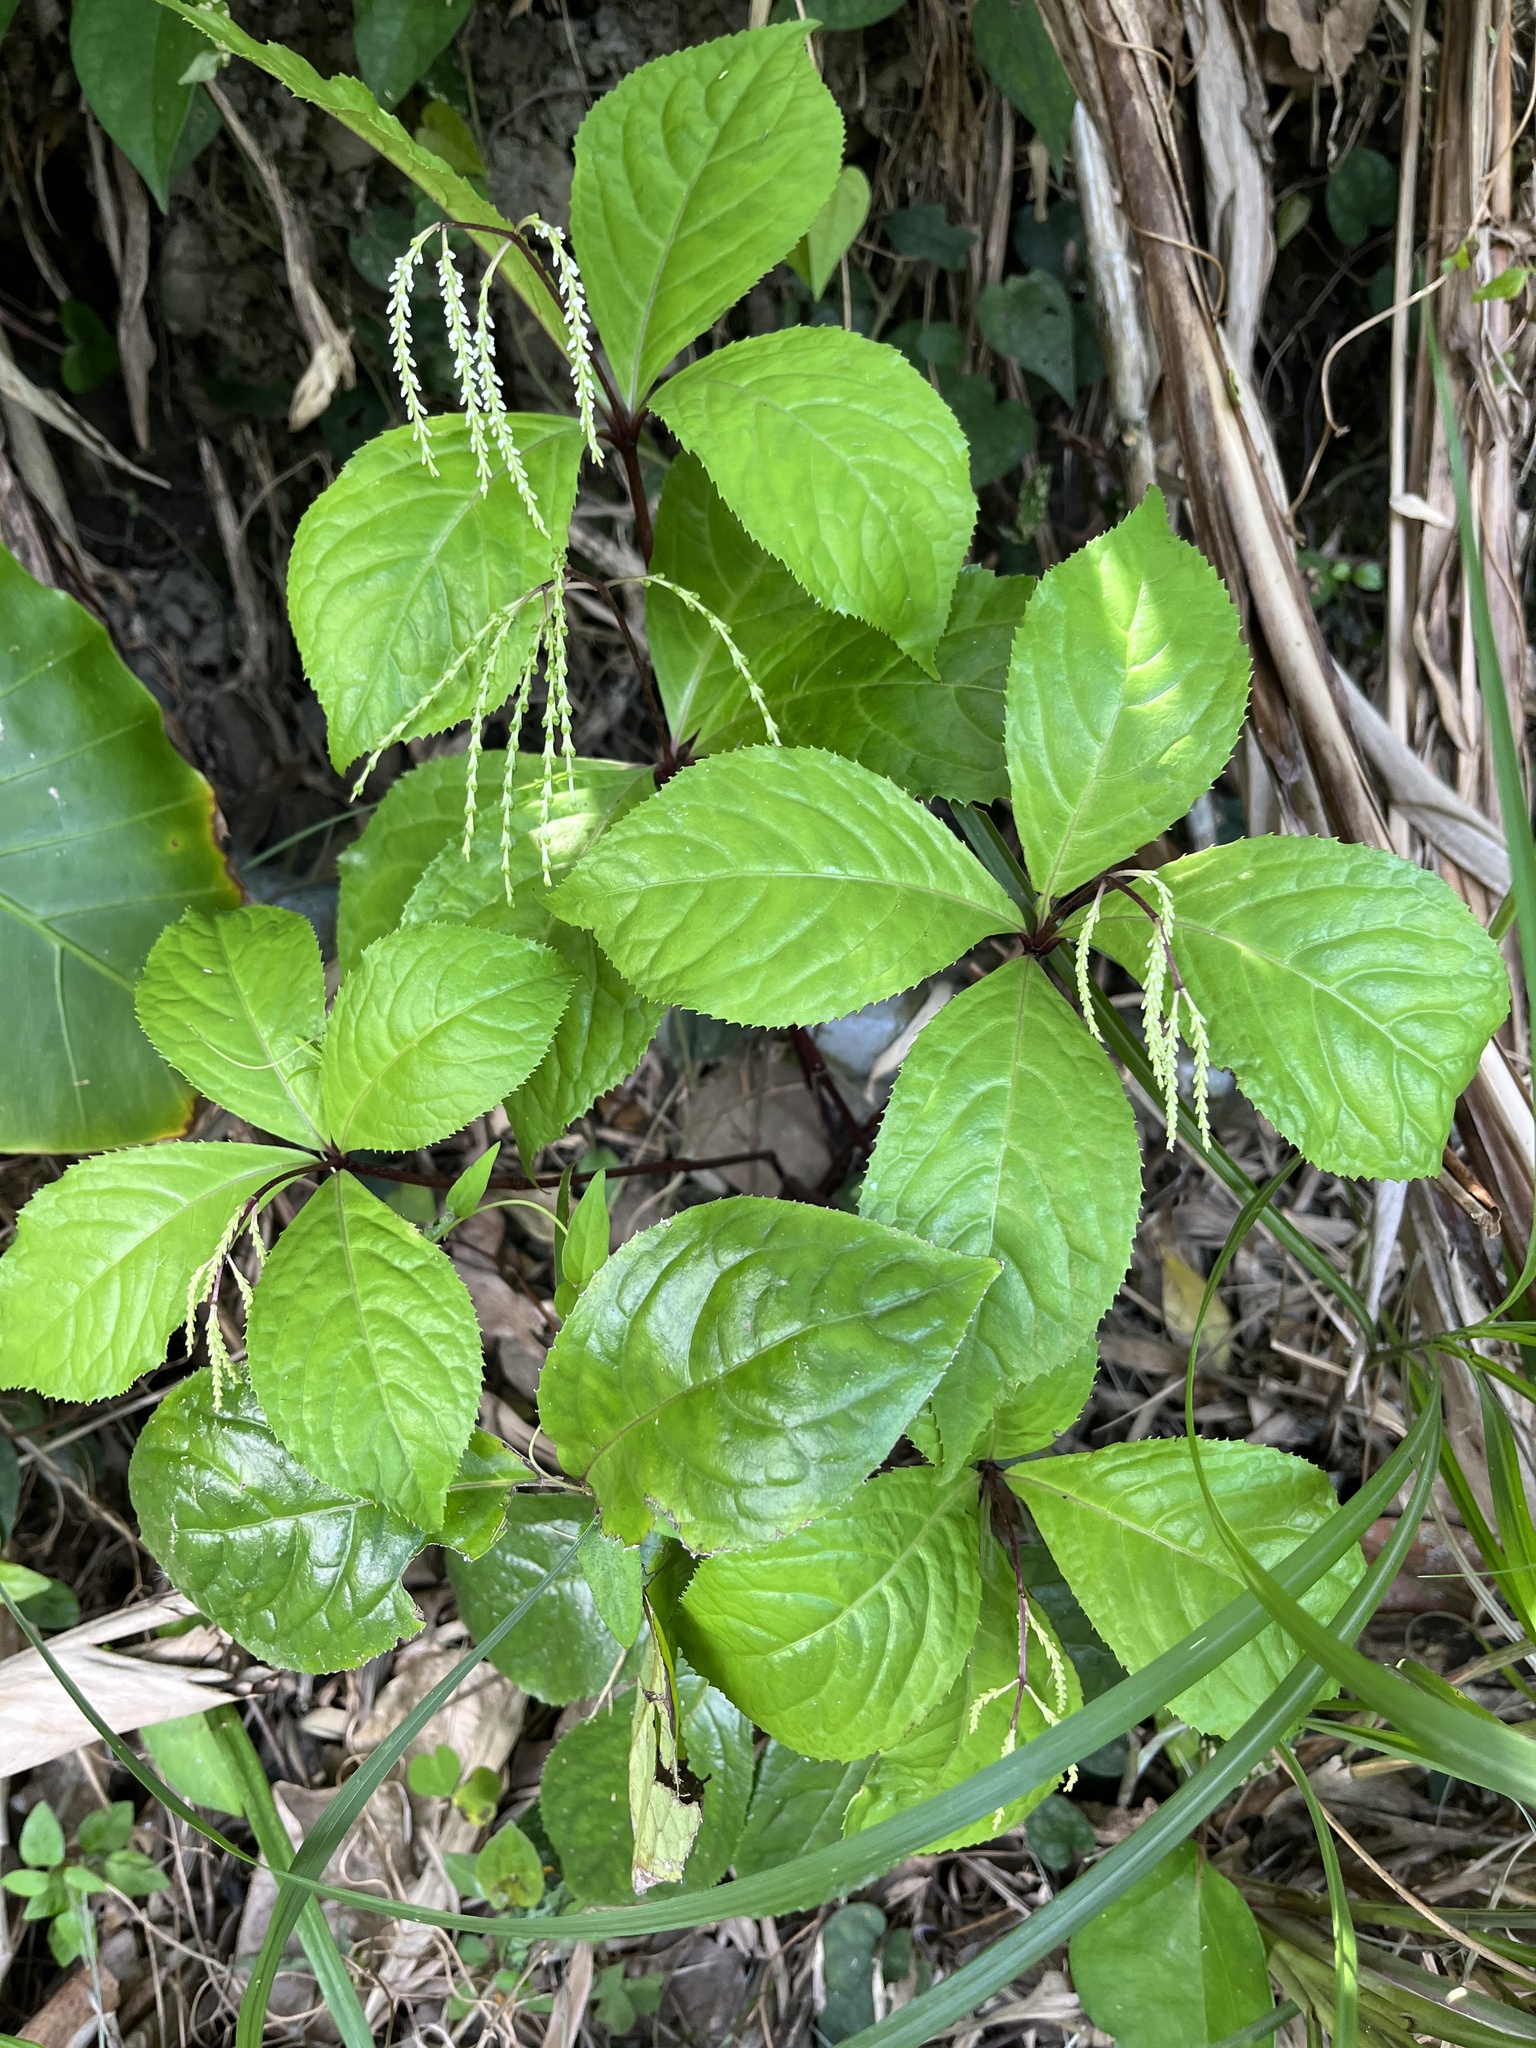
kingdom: Plantae
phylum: Tracheophyta
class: Magnoliopsida
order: Chloranthales
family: Chloranthaceae
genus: Chloranthus
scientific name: Chloranthus oldhamii
